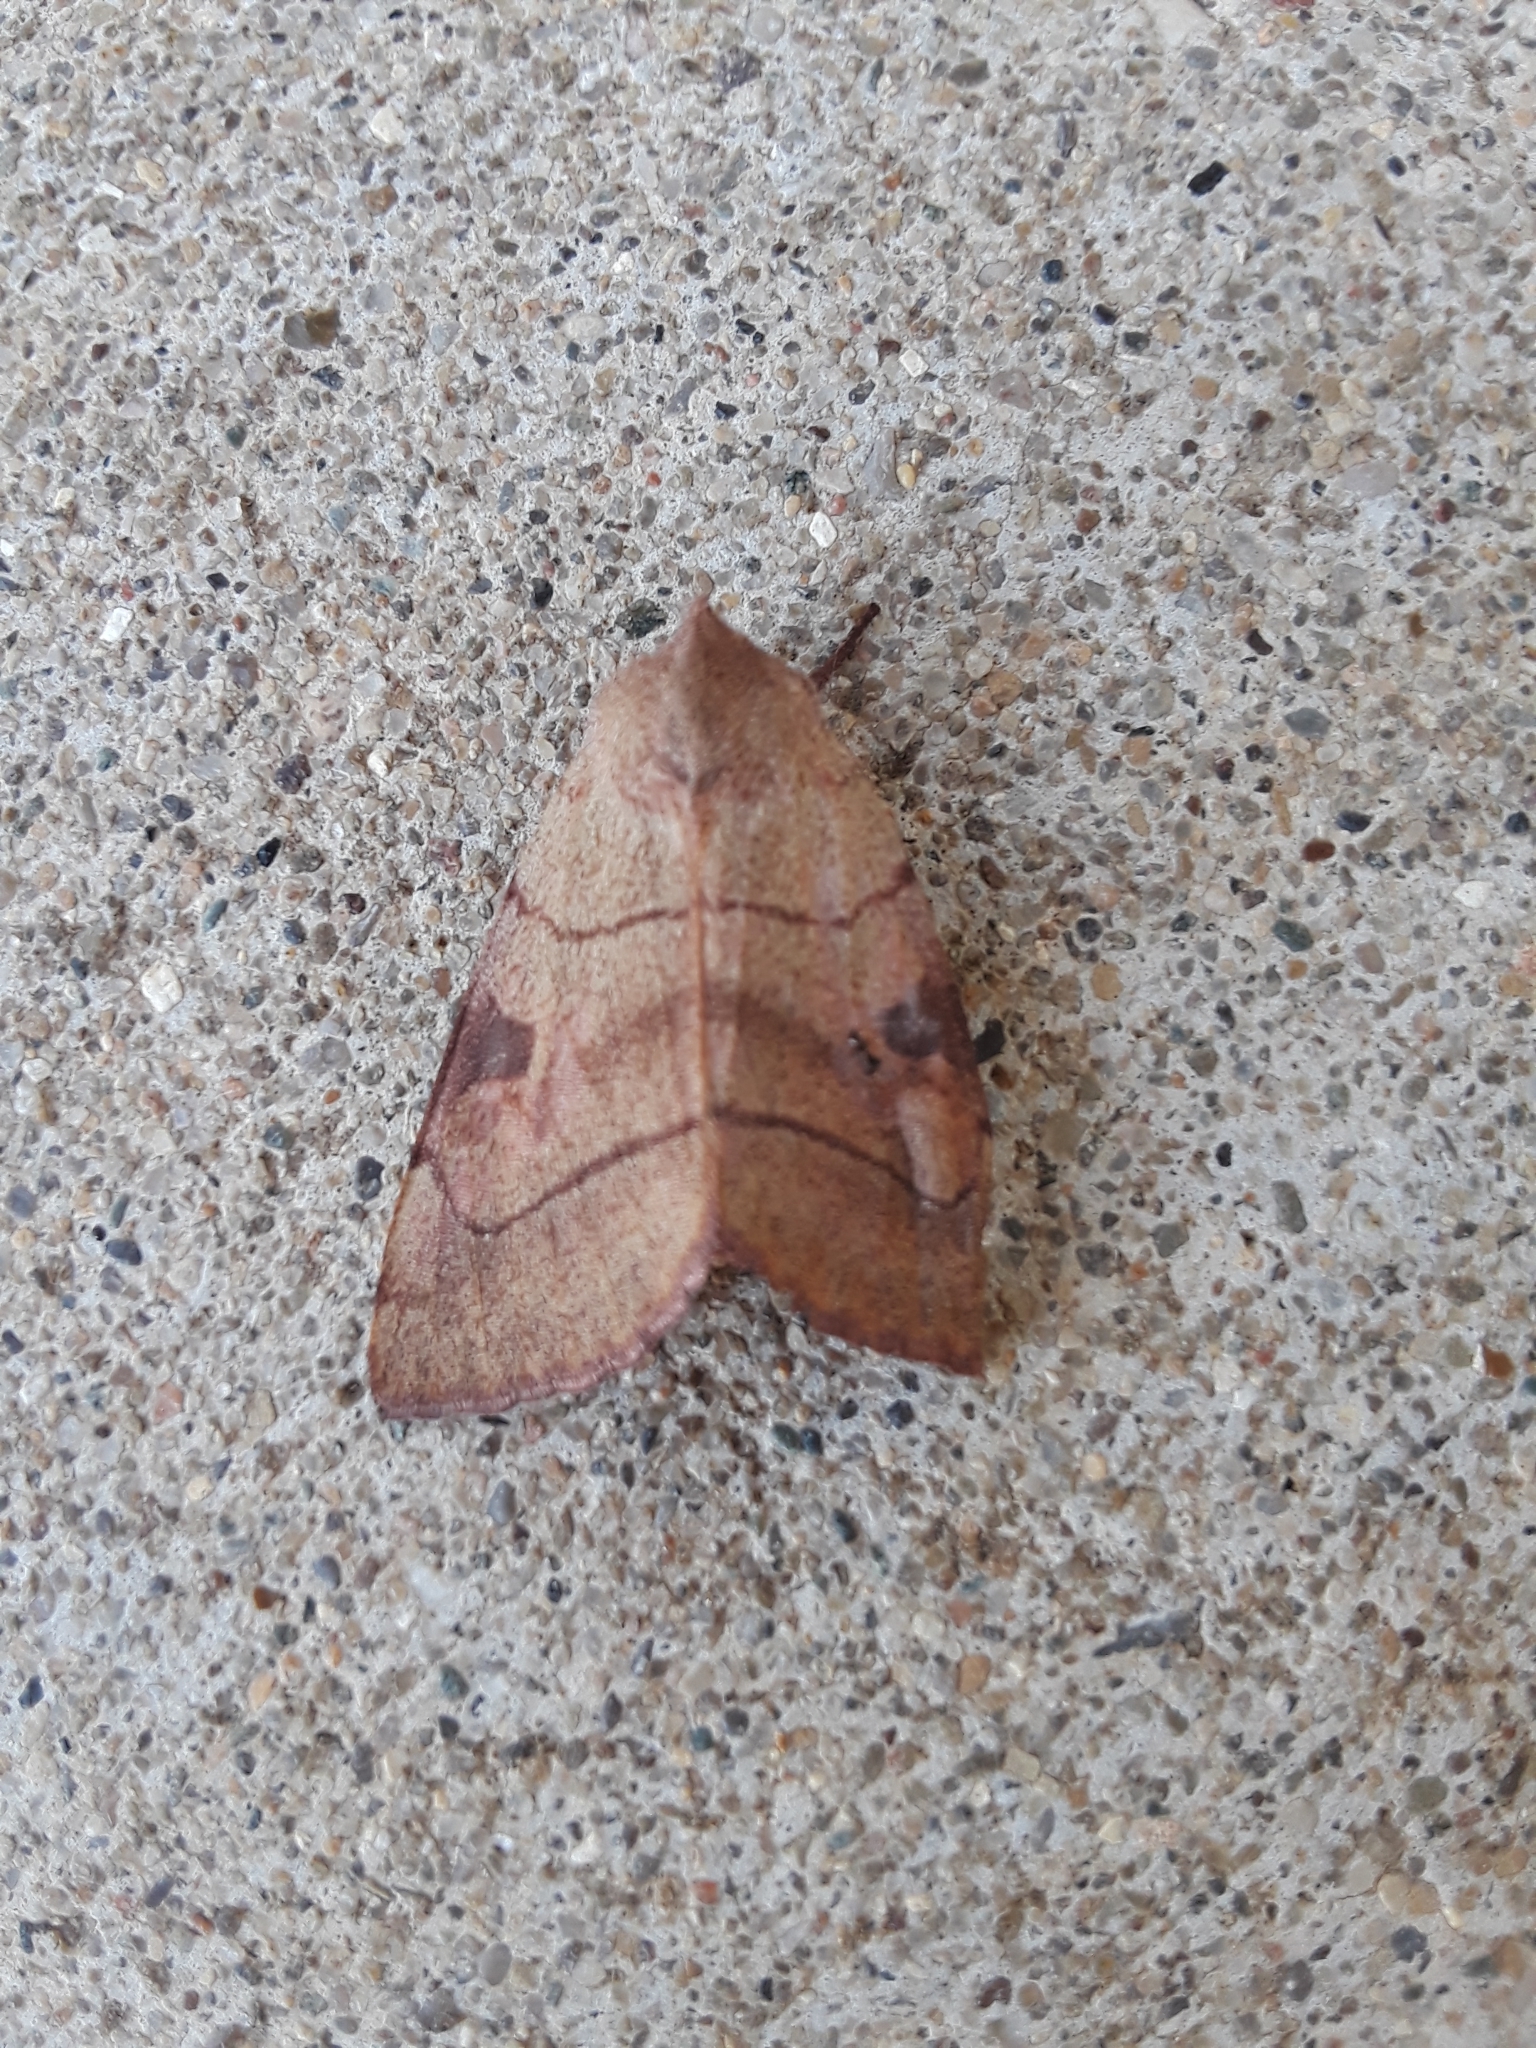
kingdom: Animalia
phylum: Arthropoda
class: Insecta
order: Lepidoptera
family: Noctuidae
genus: Choephora
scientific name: Choephora fungorum
